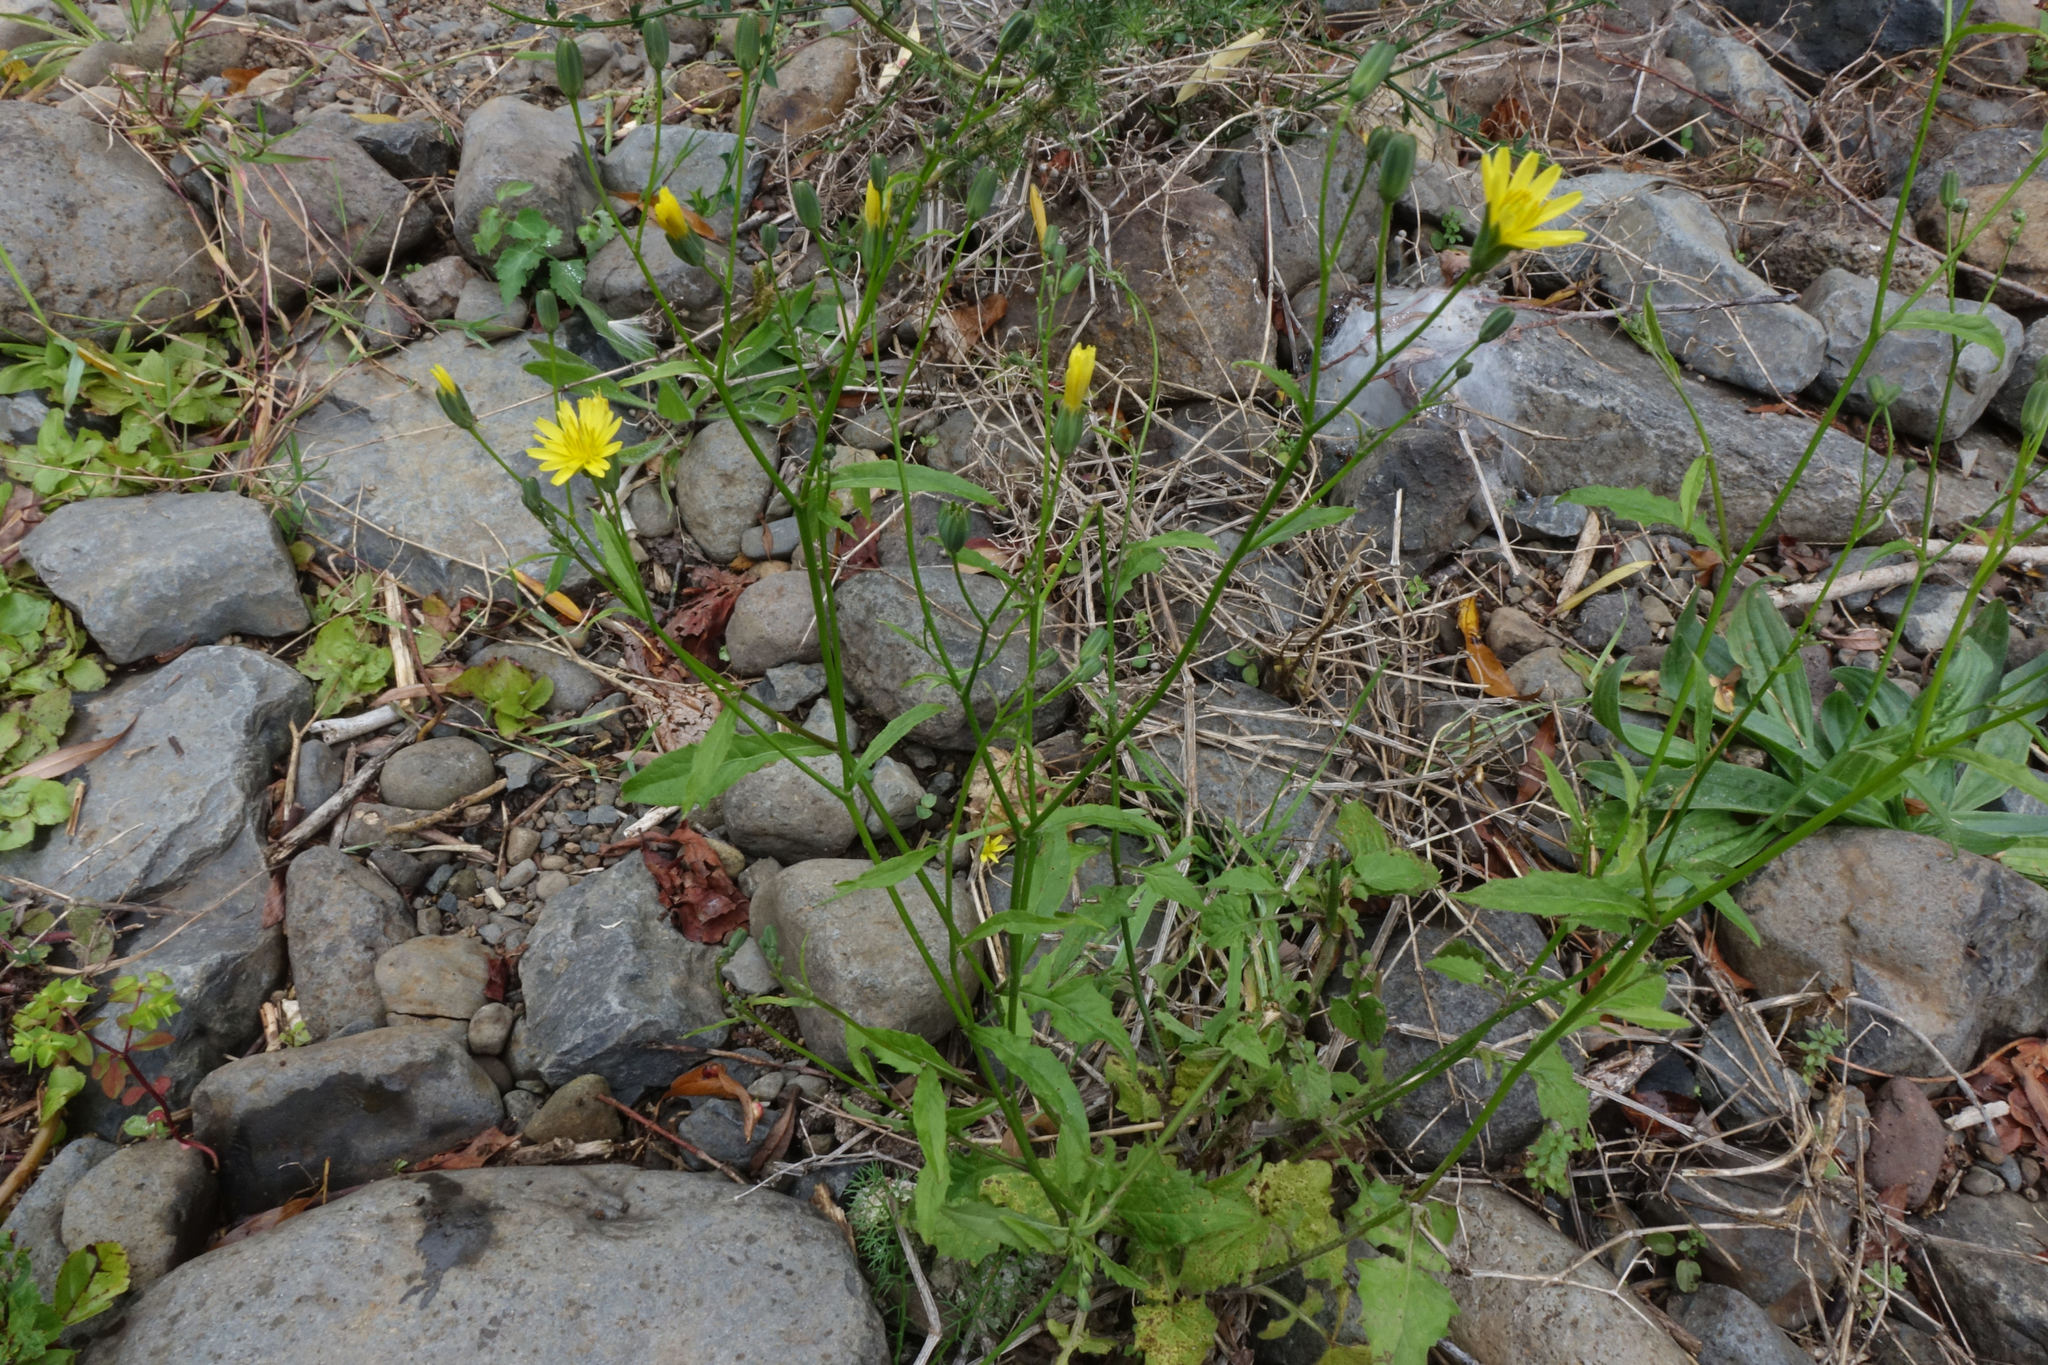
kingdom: Plantae
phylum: Tracheophyta
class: Magnoliopsida
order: Asterales
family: Asteraceae
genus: Lapsana
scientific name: Lapsana communis
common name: Nipplewort
